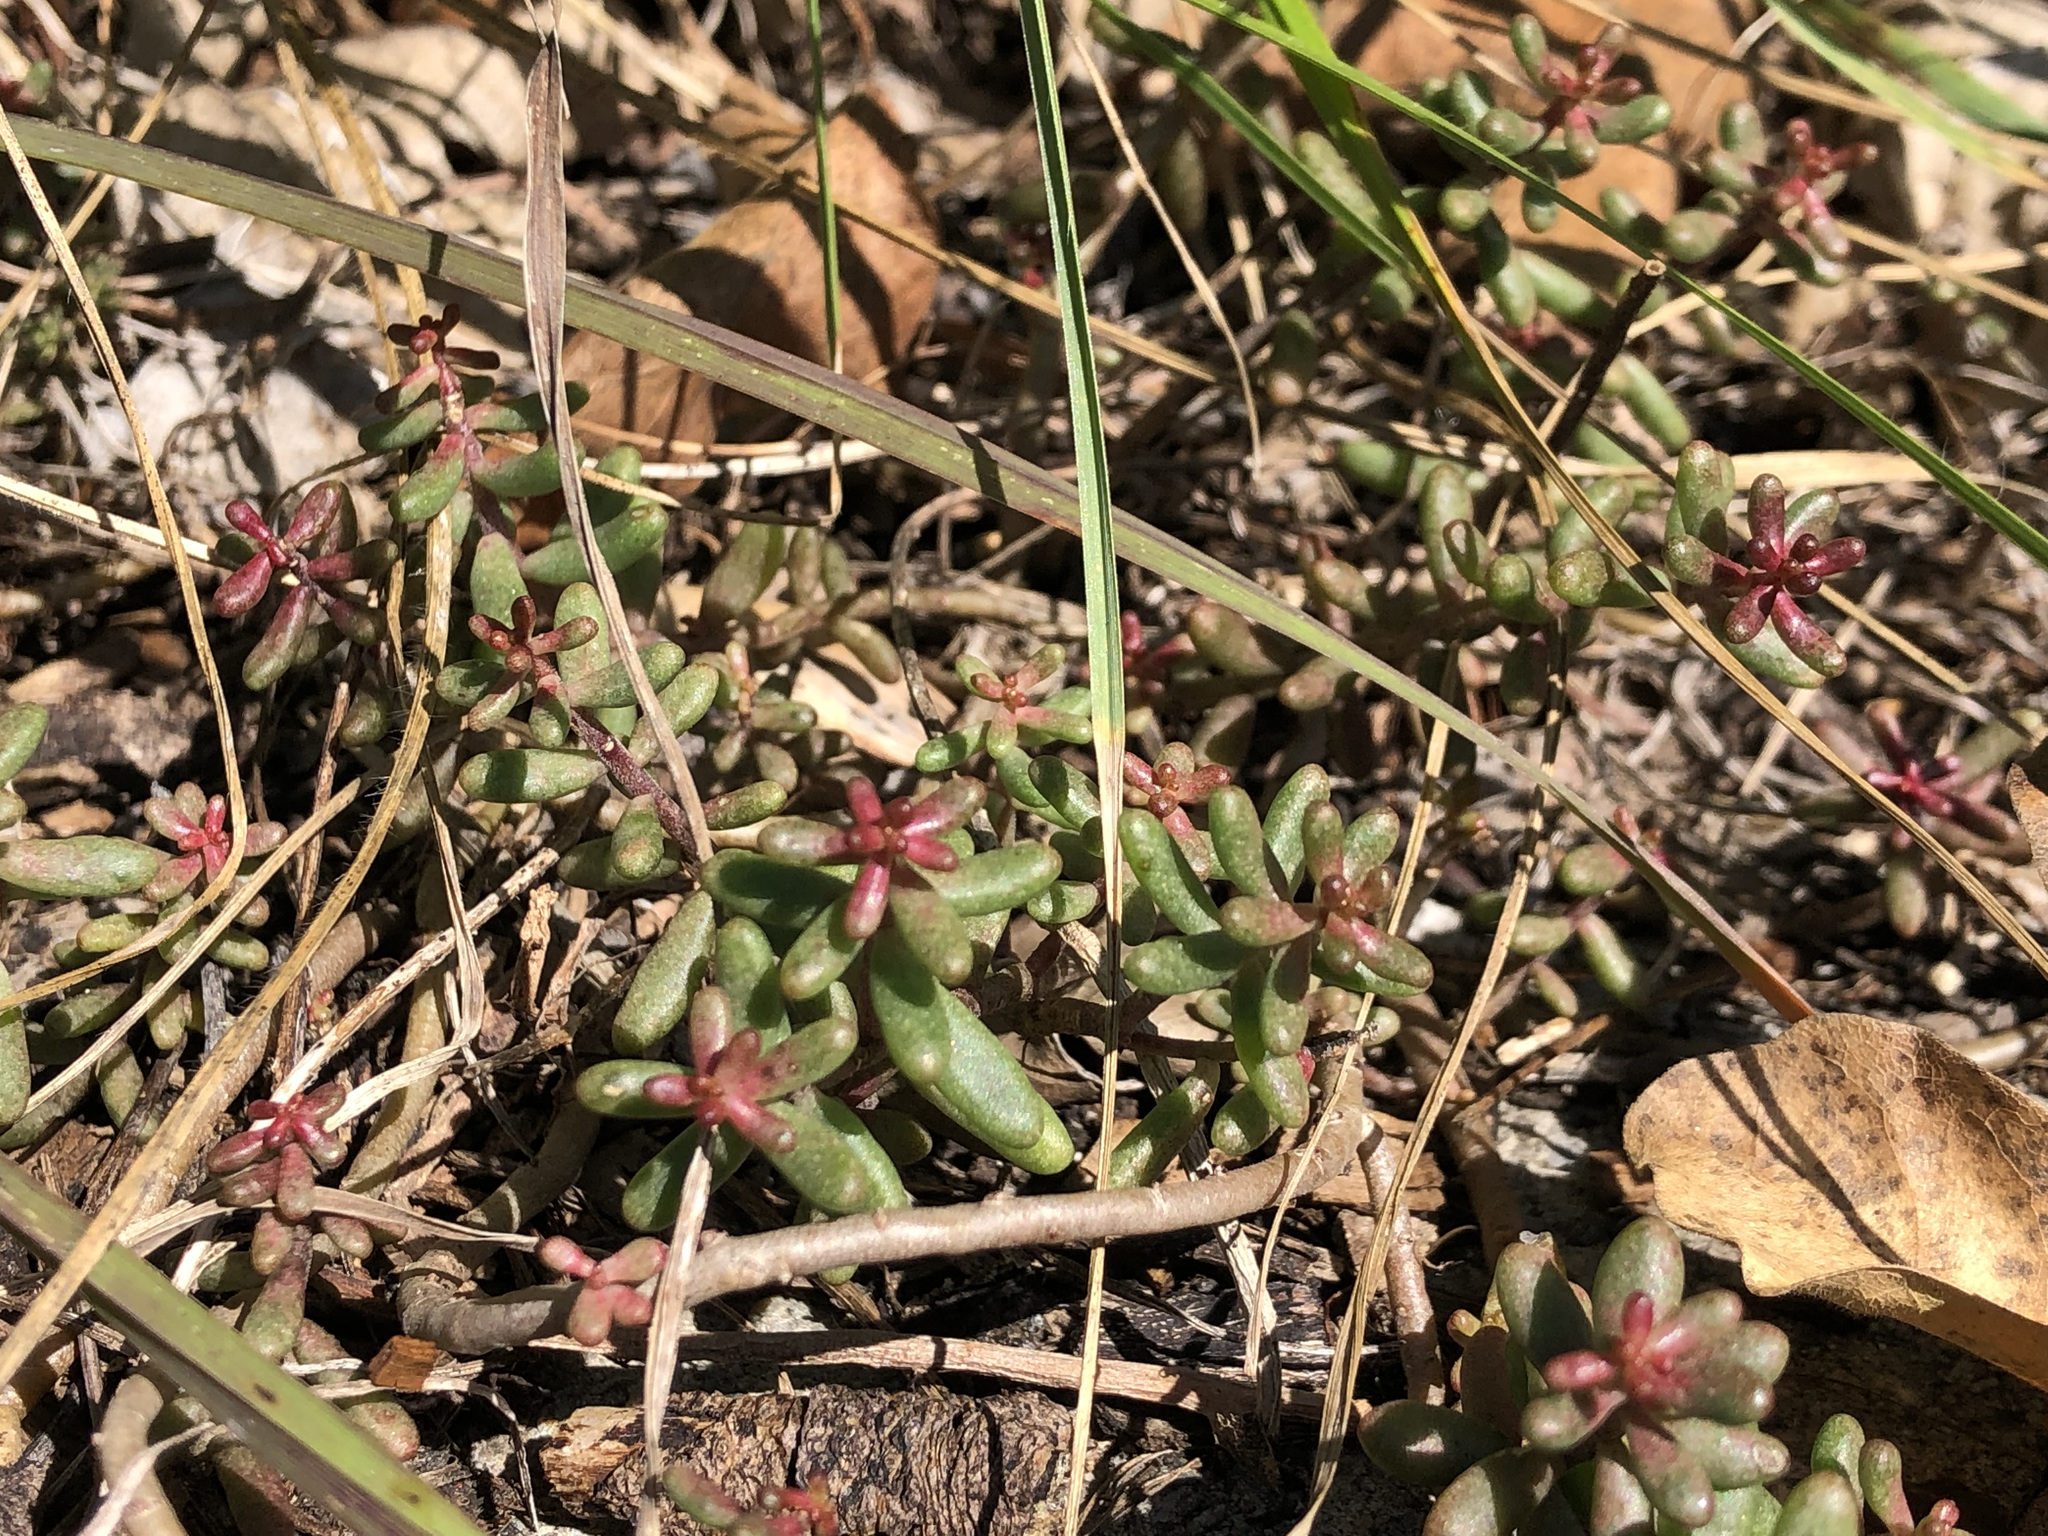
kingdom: Plantae
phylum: Tracheophyta
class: Magnoliopsida
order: Saxifragales
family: Crassulaceae
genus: Sedum
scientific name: Sedum album
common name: White stonecrop
